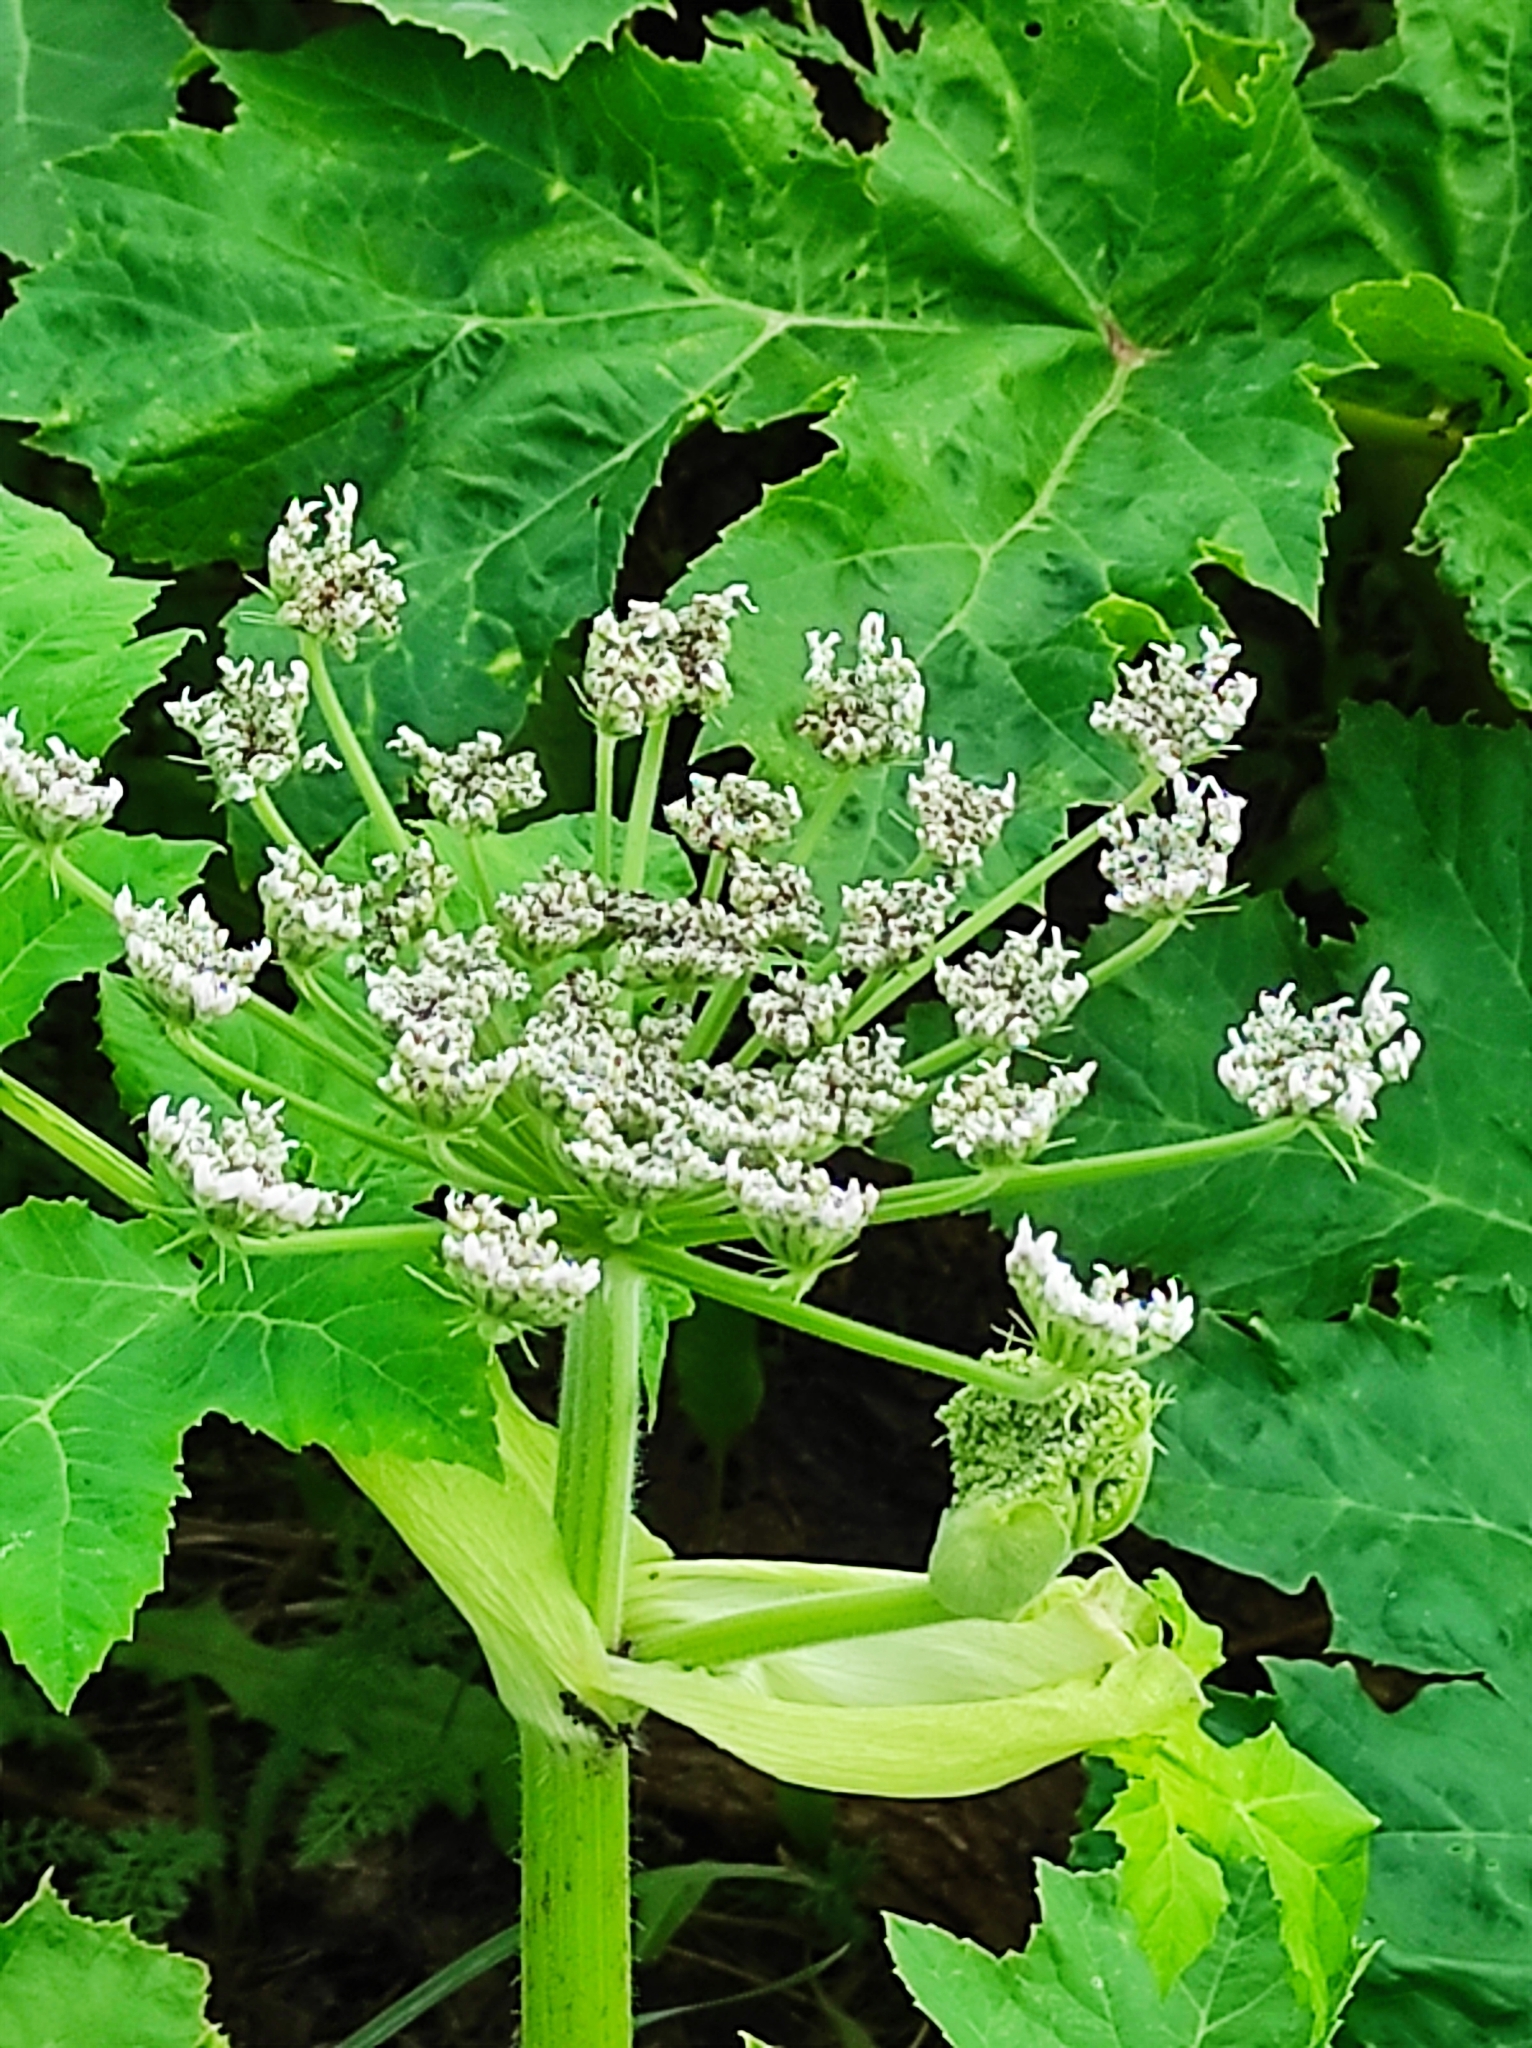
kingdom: Plantae
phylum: Tracheophyta
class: Magnoliopsida
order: Apiales
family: Apiaceae
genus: Heracleum
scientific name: Heracleum sosnowskyi
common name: Sosnowsky's hogweed
